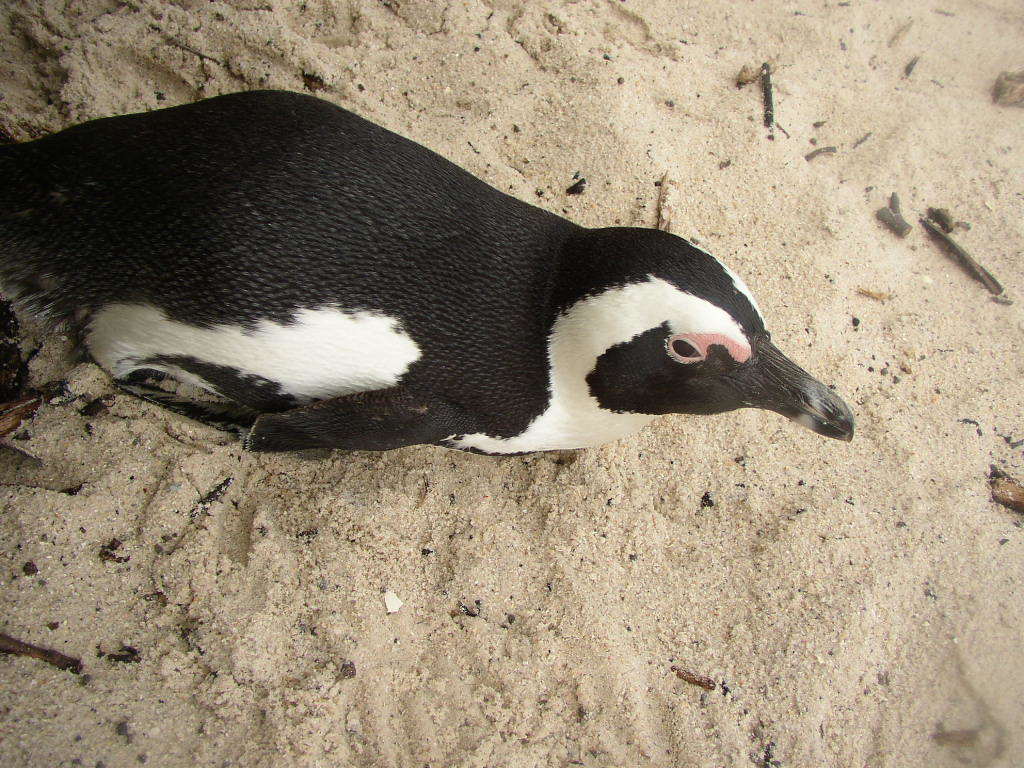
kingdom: Animalia
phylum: Chordata
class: Aves
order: Sphenisciformes
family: Spheniscidae
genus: Spheniscus
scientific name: Spheniscus demersus
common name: African penguin
